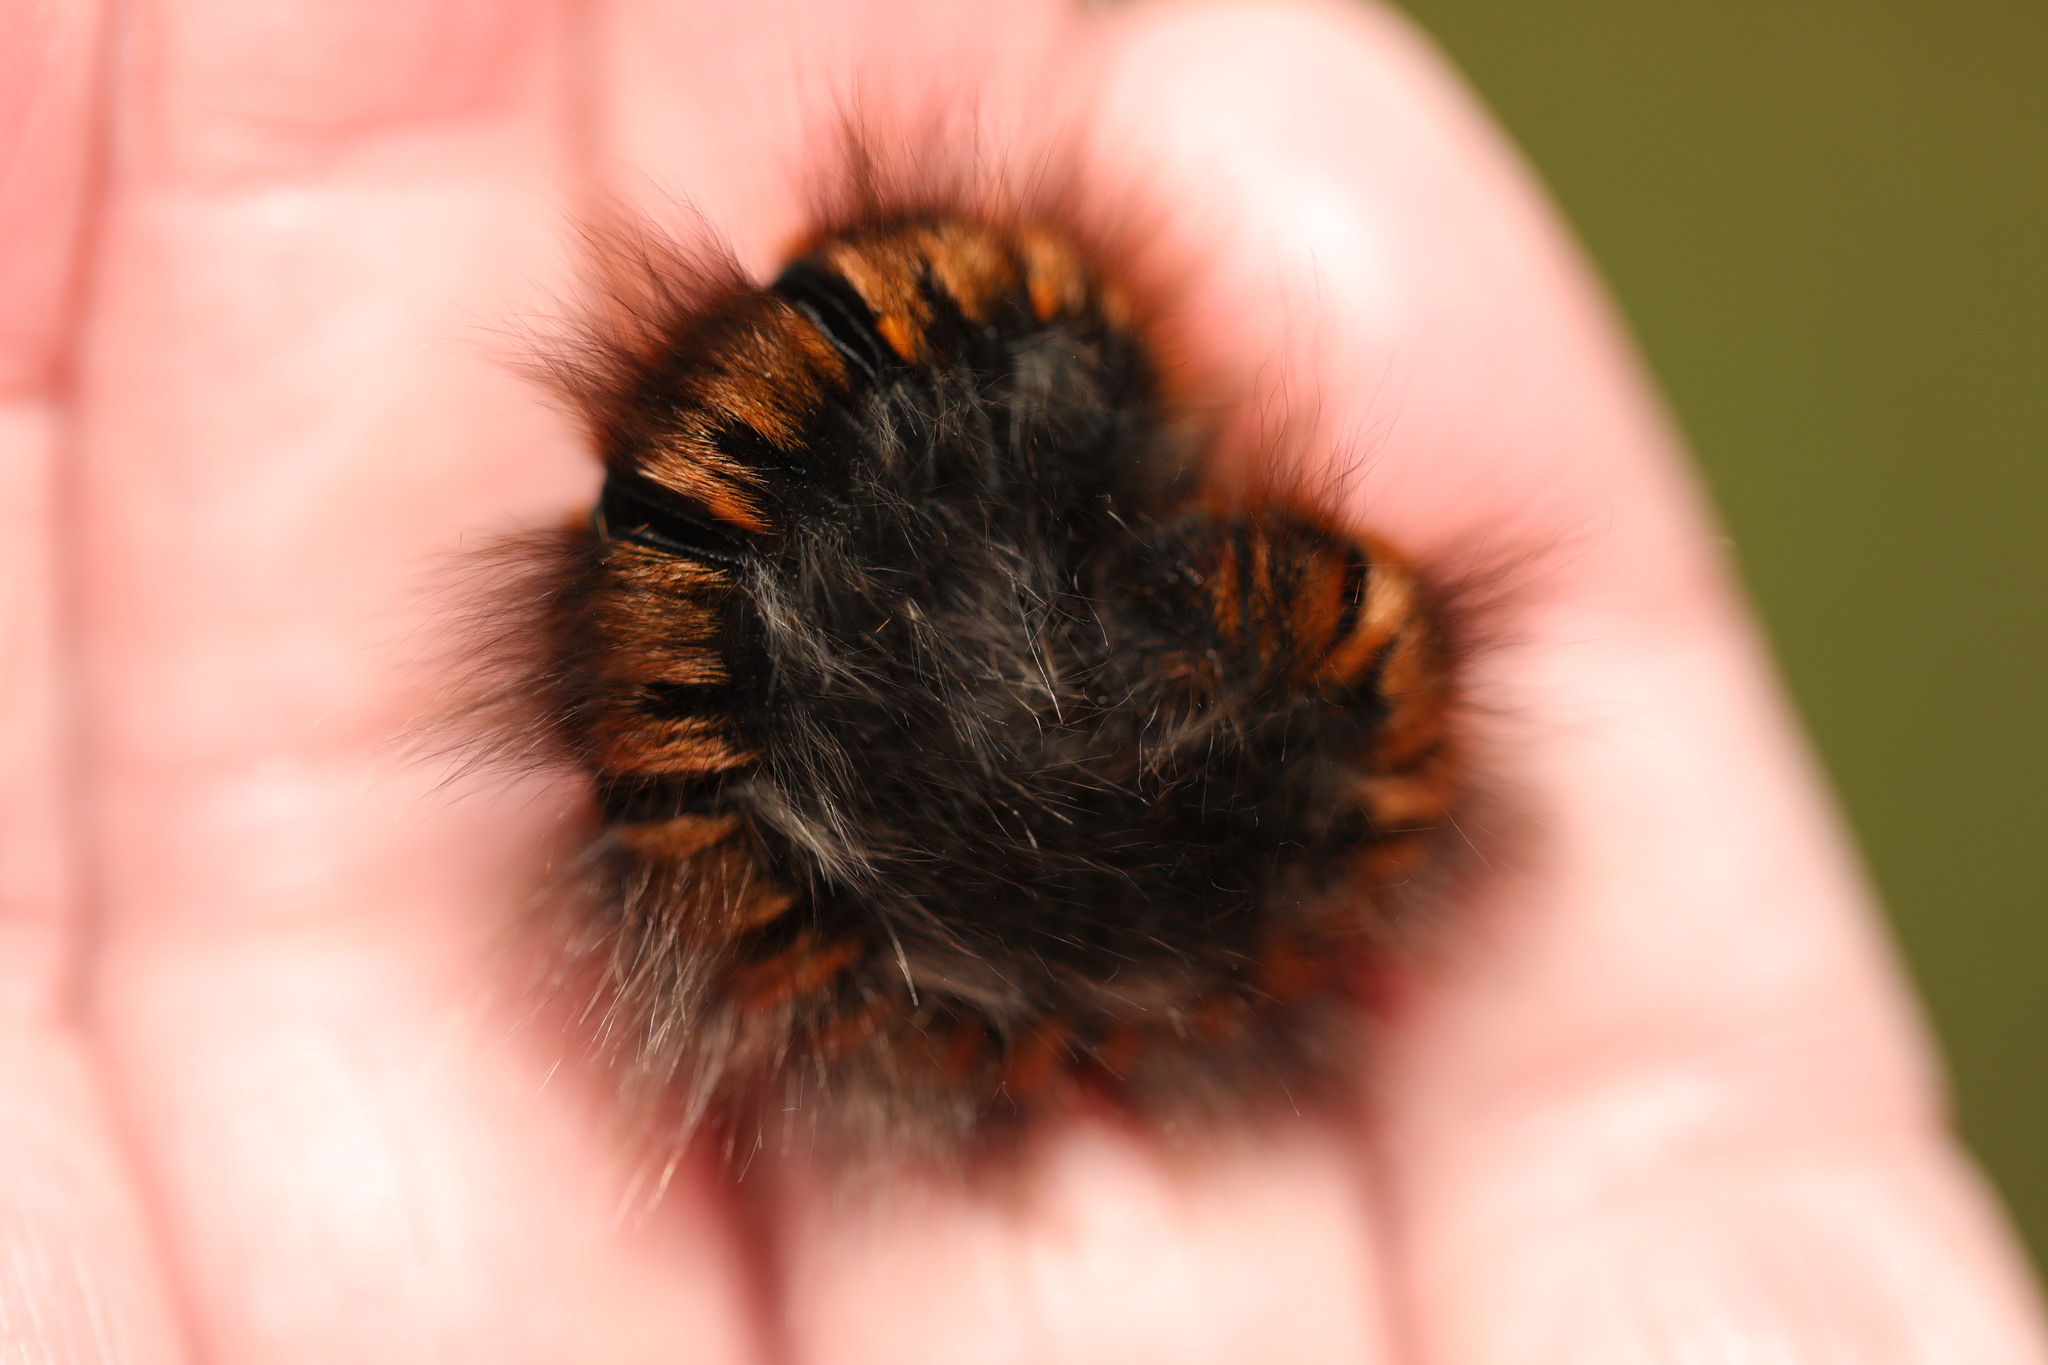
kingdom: Animalia
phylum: Arthropoda
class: Insecta
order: Lepidoptera
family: Lasiocampidae
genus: Macrothylacia
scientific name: Macrothylacia rubi
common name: Fox moth
